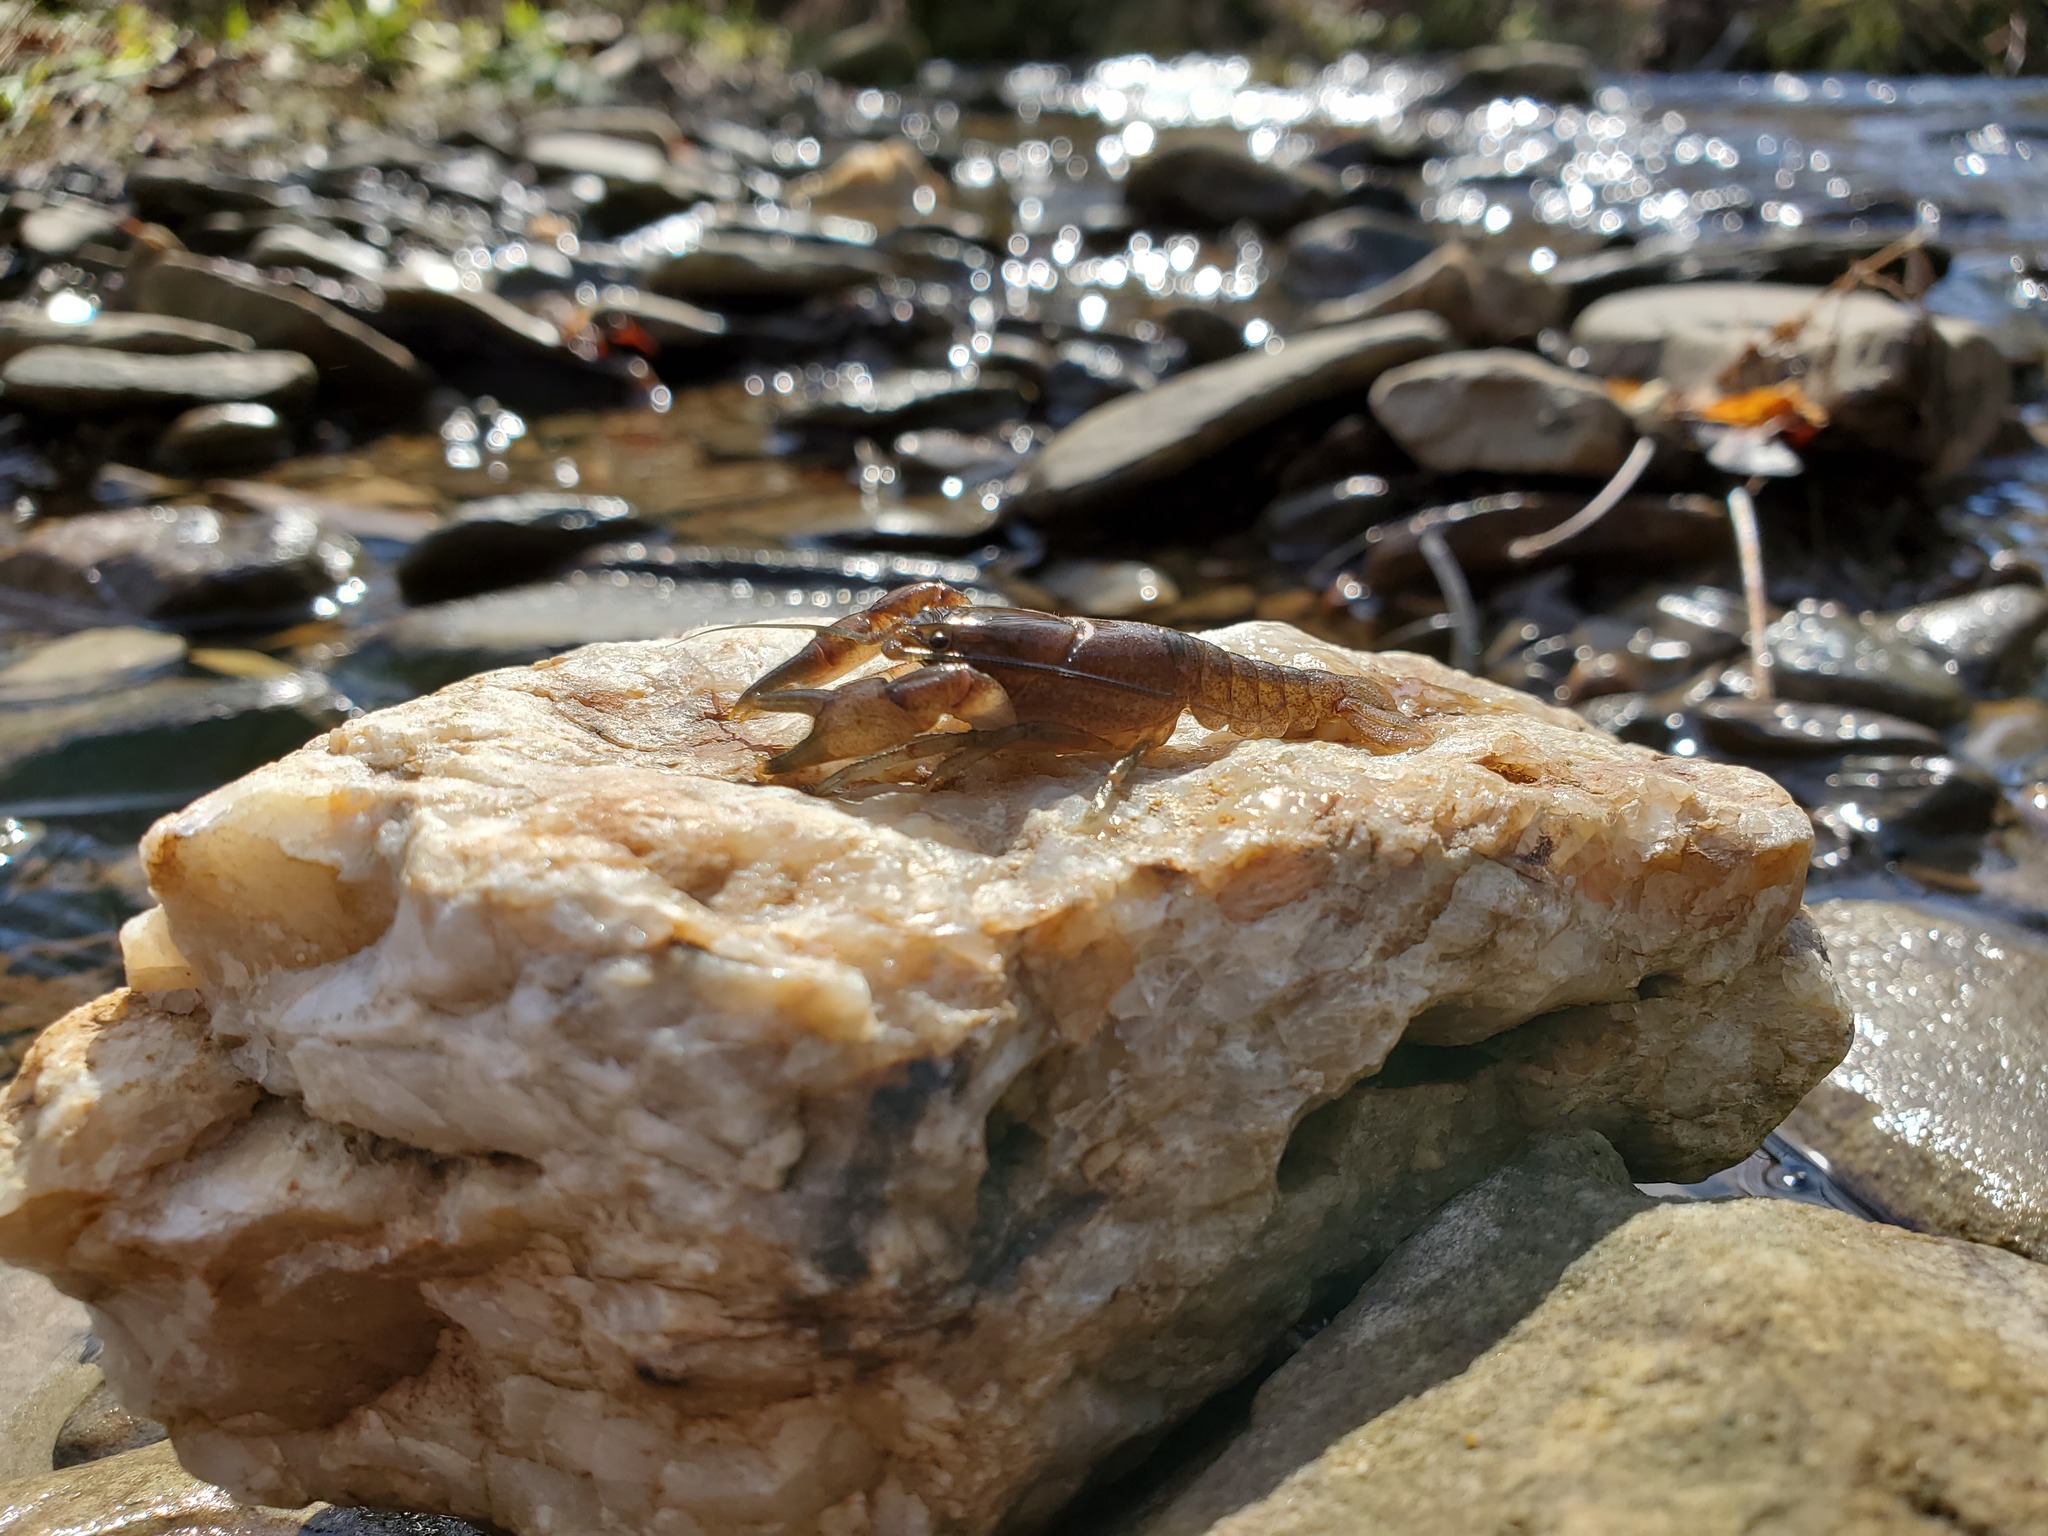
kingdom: Animalia
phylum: Arthropoda
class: Malacostraca
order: Decapoda
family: Cambaridae
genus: Cambarus
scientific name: Cambarus bartonii
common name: Appalachian brook crayfish
